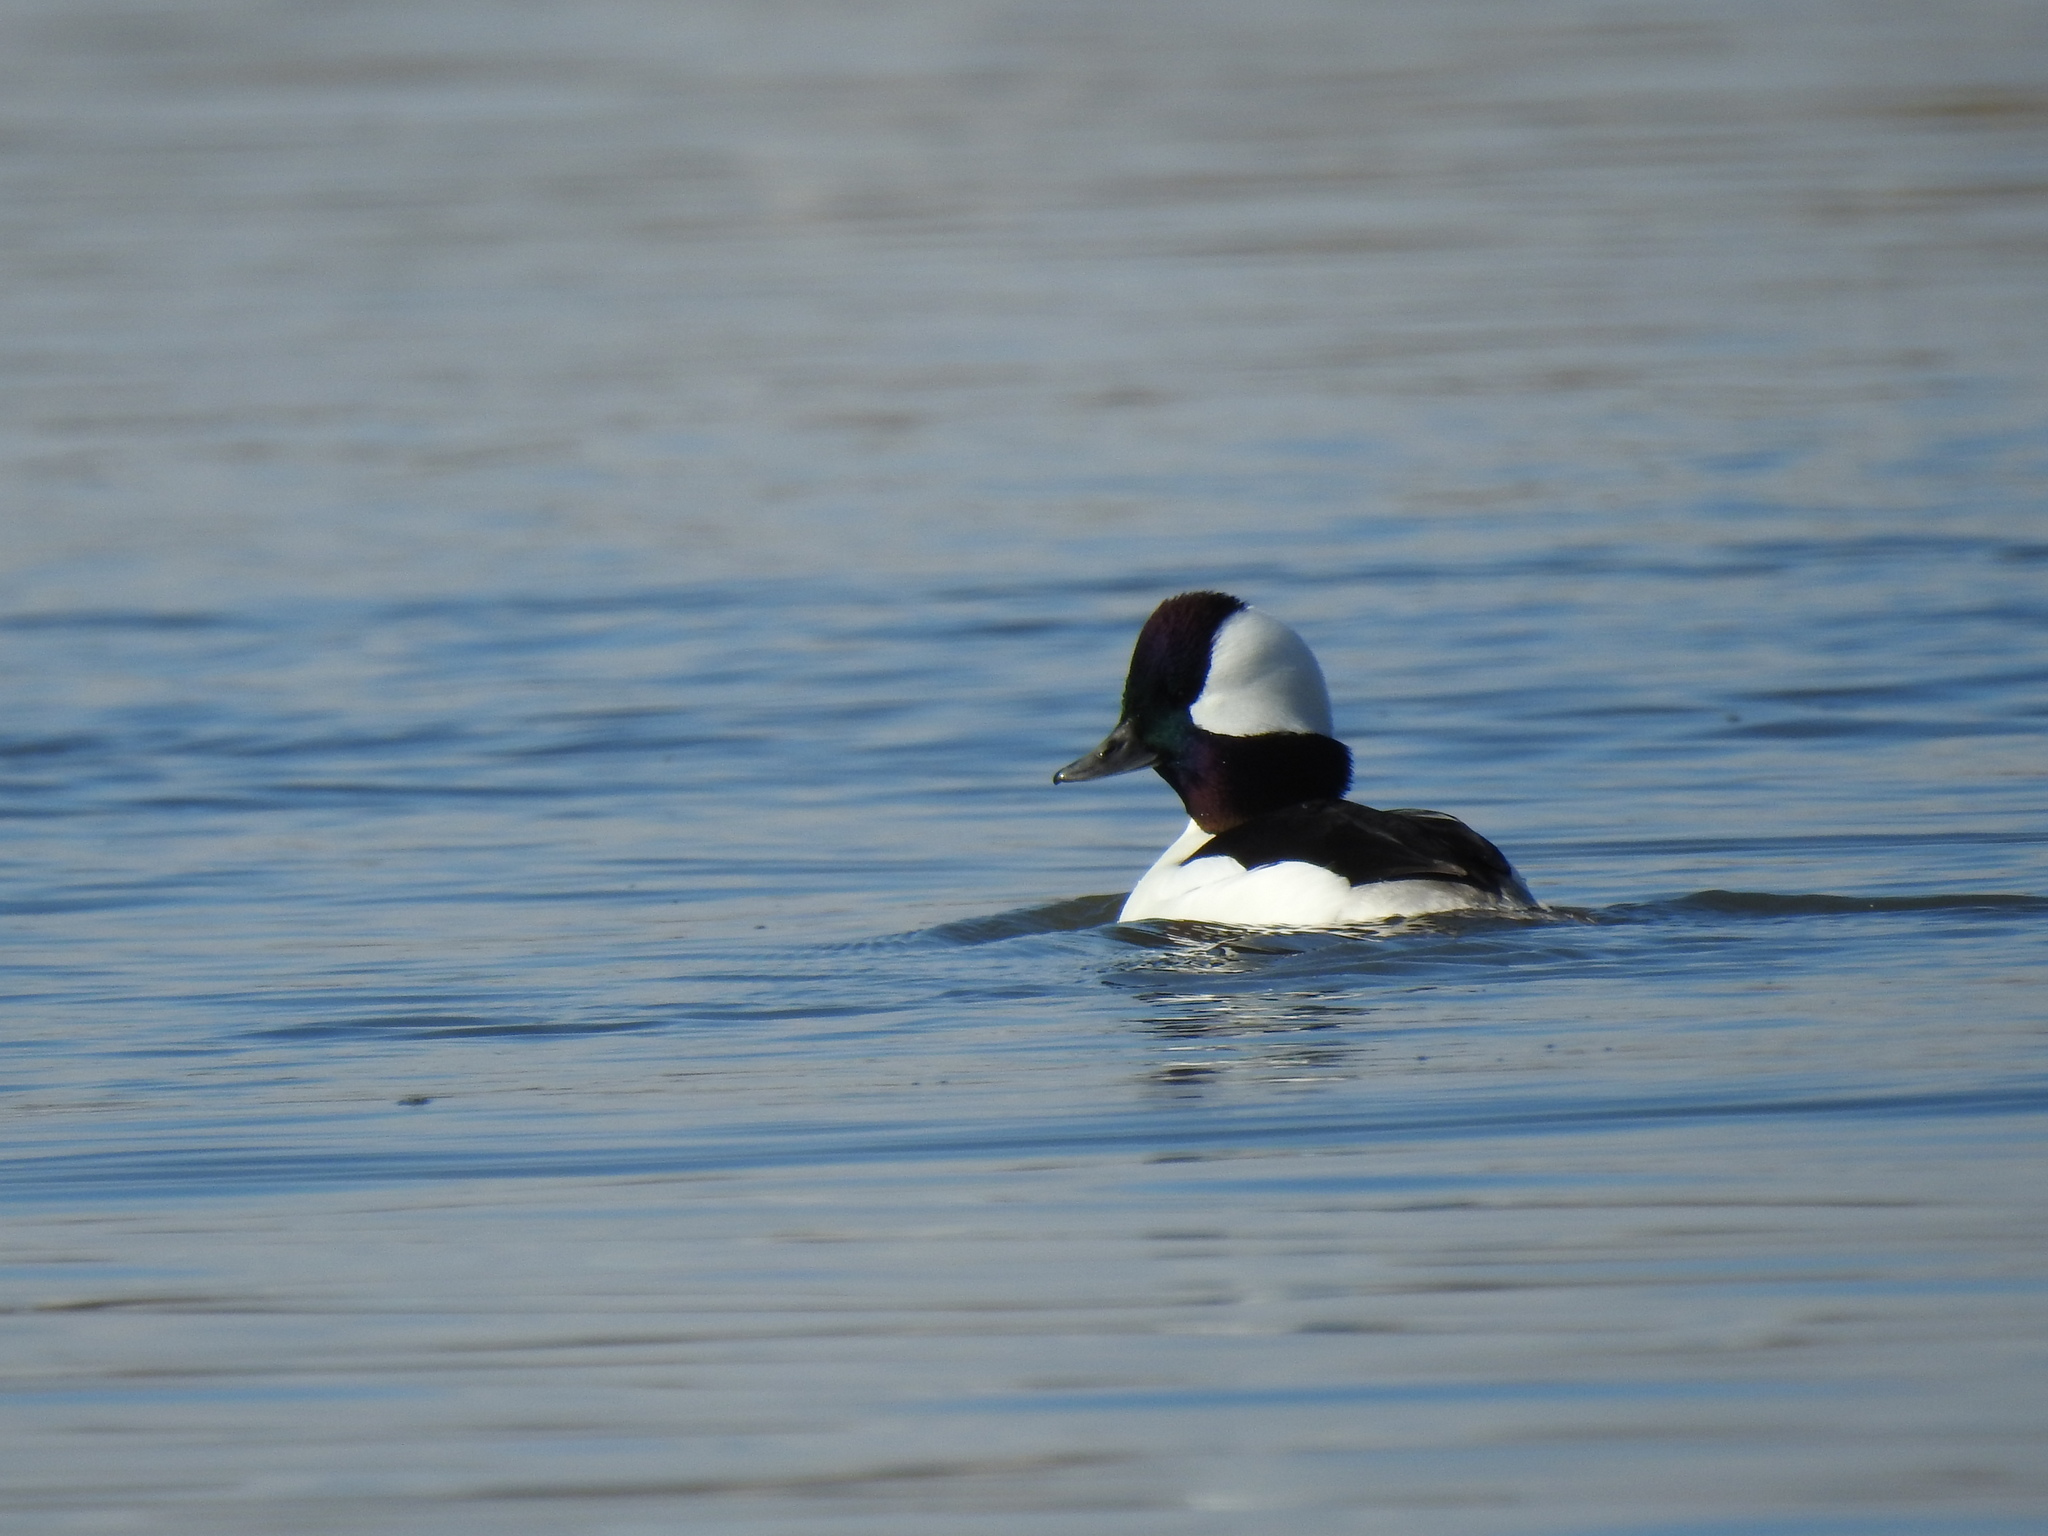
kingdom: Animalia
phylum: Chordata
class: Aves
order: Anseriformes
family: Anatidae
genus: Bucephala
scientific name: Bucephala albeola
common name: Bufflehead
